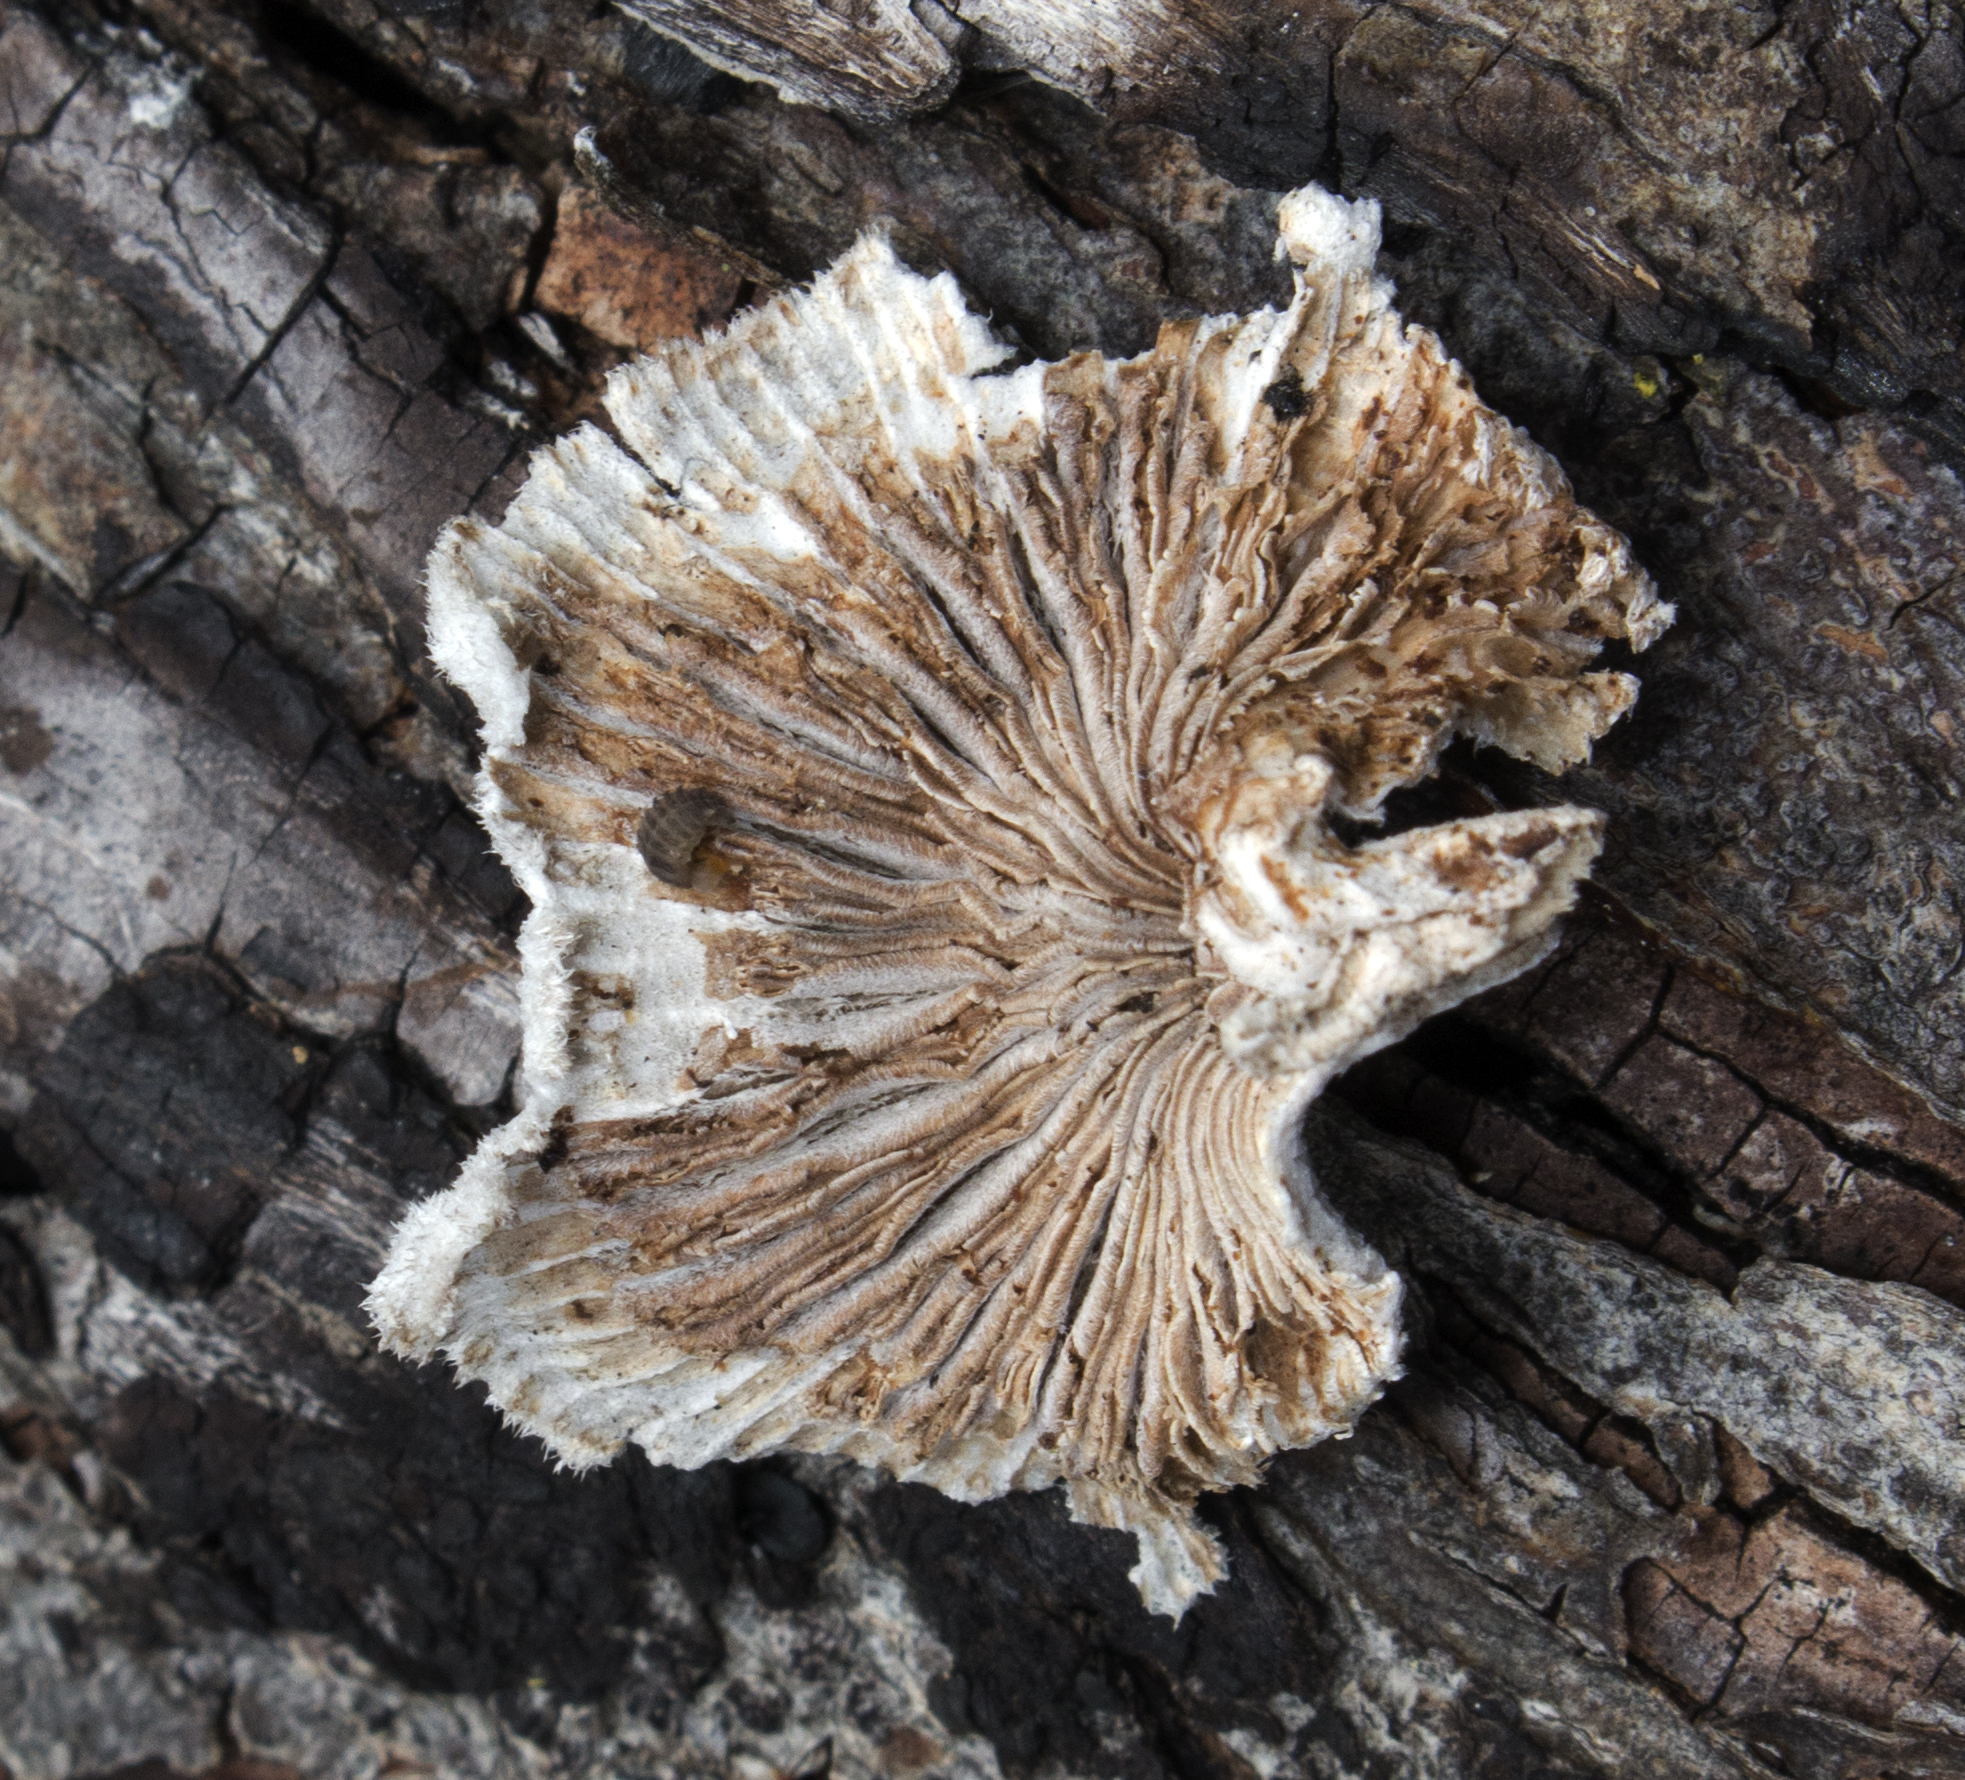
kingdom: Fungi
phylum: Basidiomycota
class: Agaricomycetes
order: Agaricales
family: Schizophyllaceae
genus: Schizophyllum
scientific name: Schizophyllum commune
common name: Common porecrust
